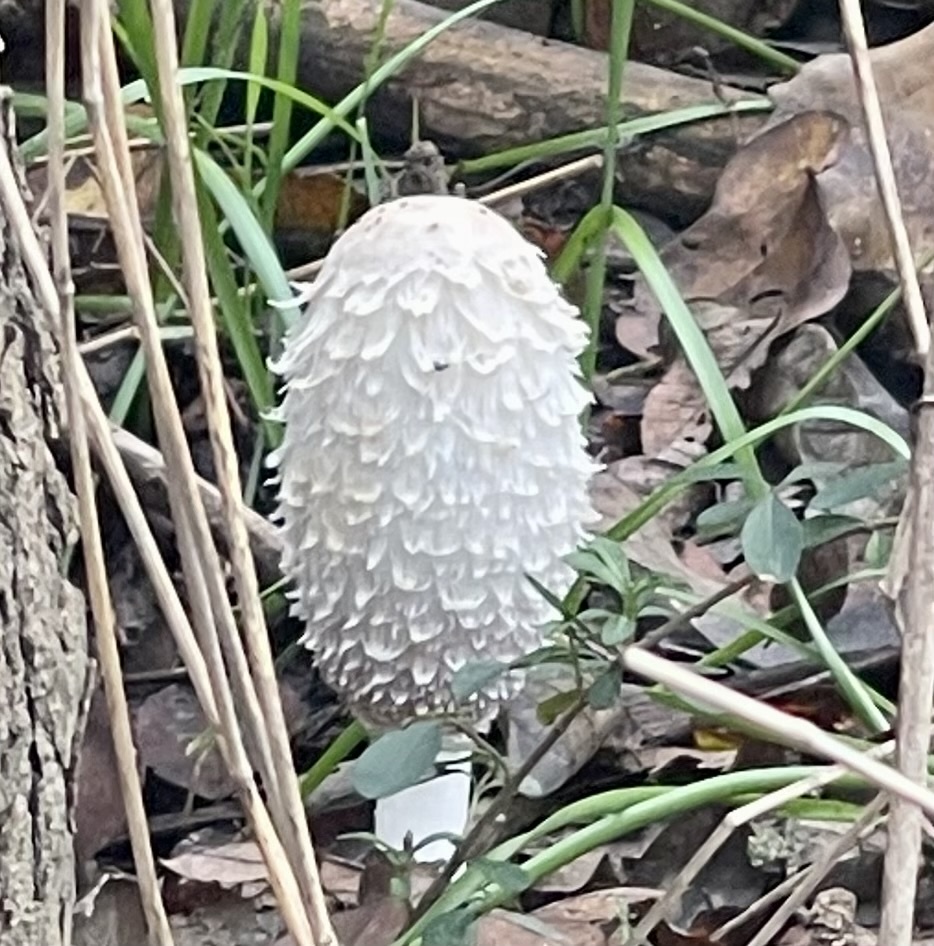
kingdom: Fungi
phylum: Basidiomycota
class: Agaricomycetes
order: Agaricales
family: Agaricaceae
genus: Coprinus
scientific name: Coprinus comatus
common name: Lawyer's wig
